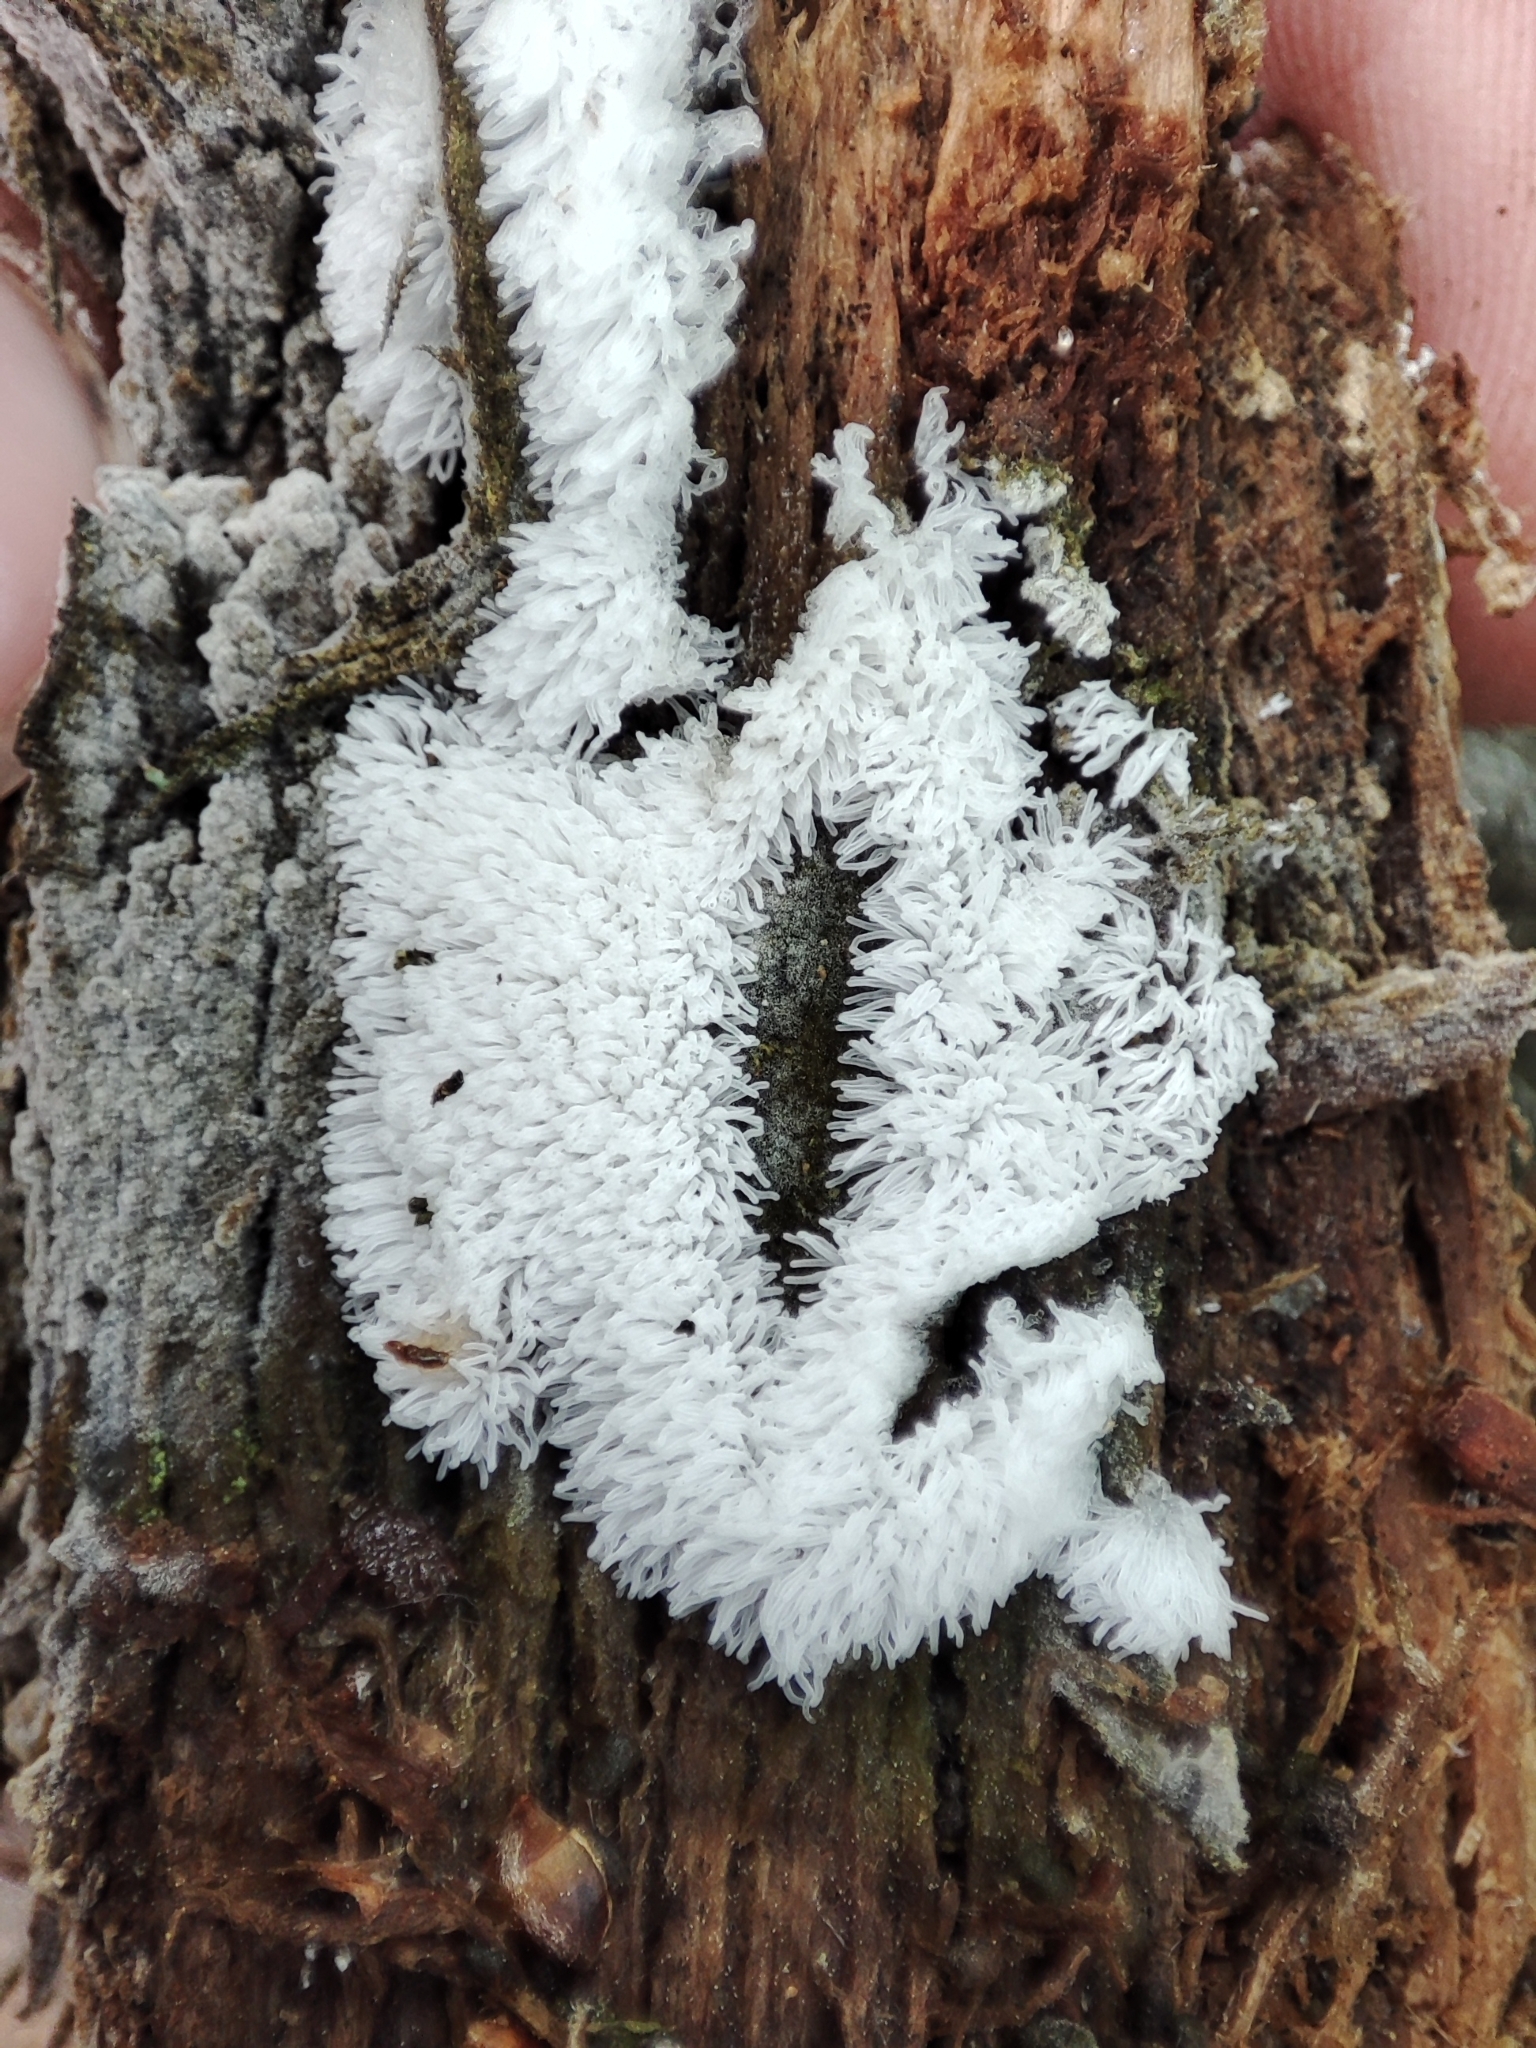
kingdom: Protozoa
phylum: Mycetozoa
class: Protosteliomycetes
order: Ceratiomyxales
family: Ceratiomyxaceae
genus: Ceratiomyxa
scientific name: Ceratiomyxa fruticulosa
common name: Honeycomb coral slime mold
